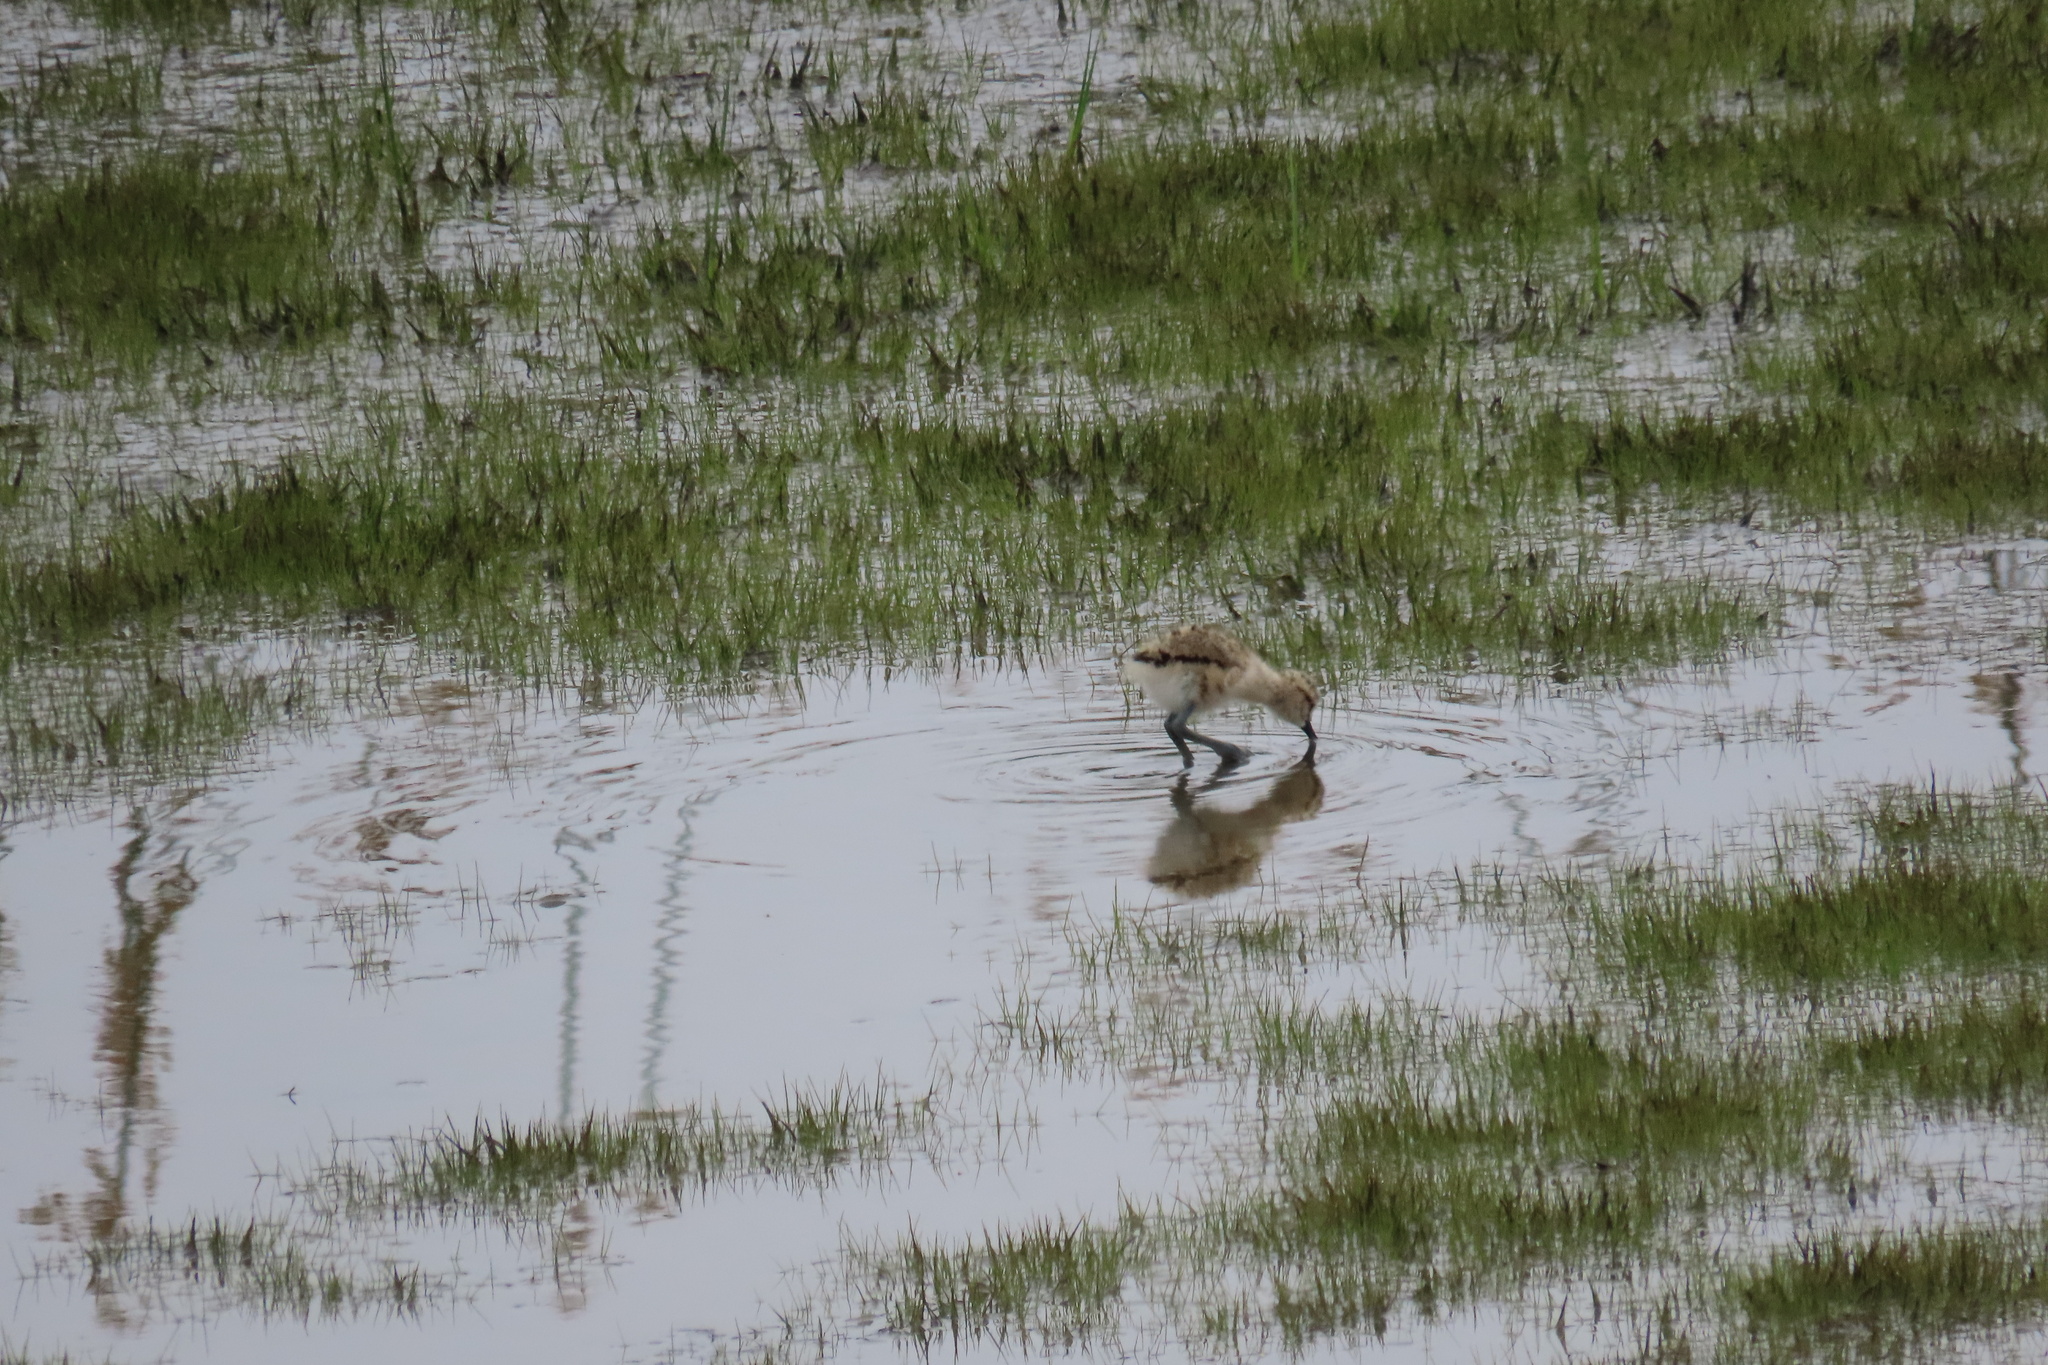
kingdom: Animalia
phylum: Chordata
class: Aves
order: Charadriiformes
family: Recurvirostridae
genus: Recurvirostra
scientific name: Recurvirostra americana
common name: American avocet
